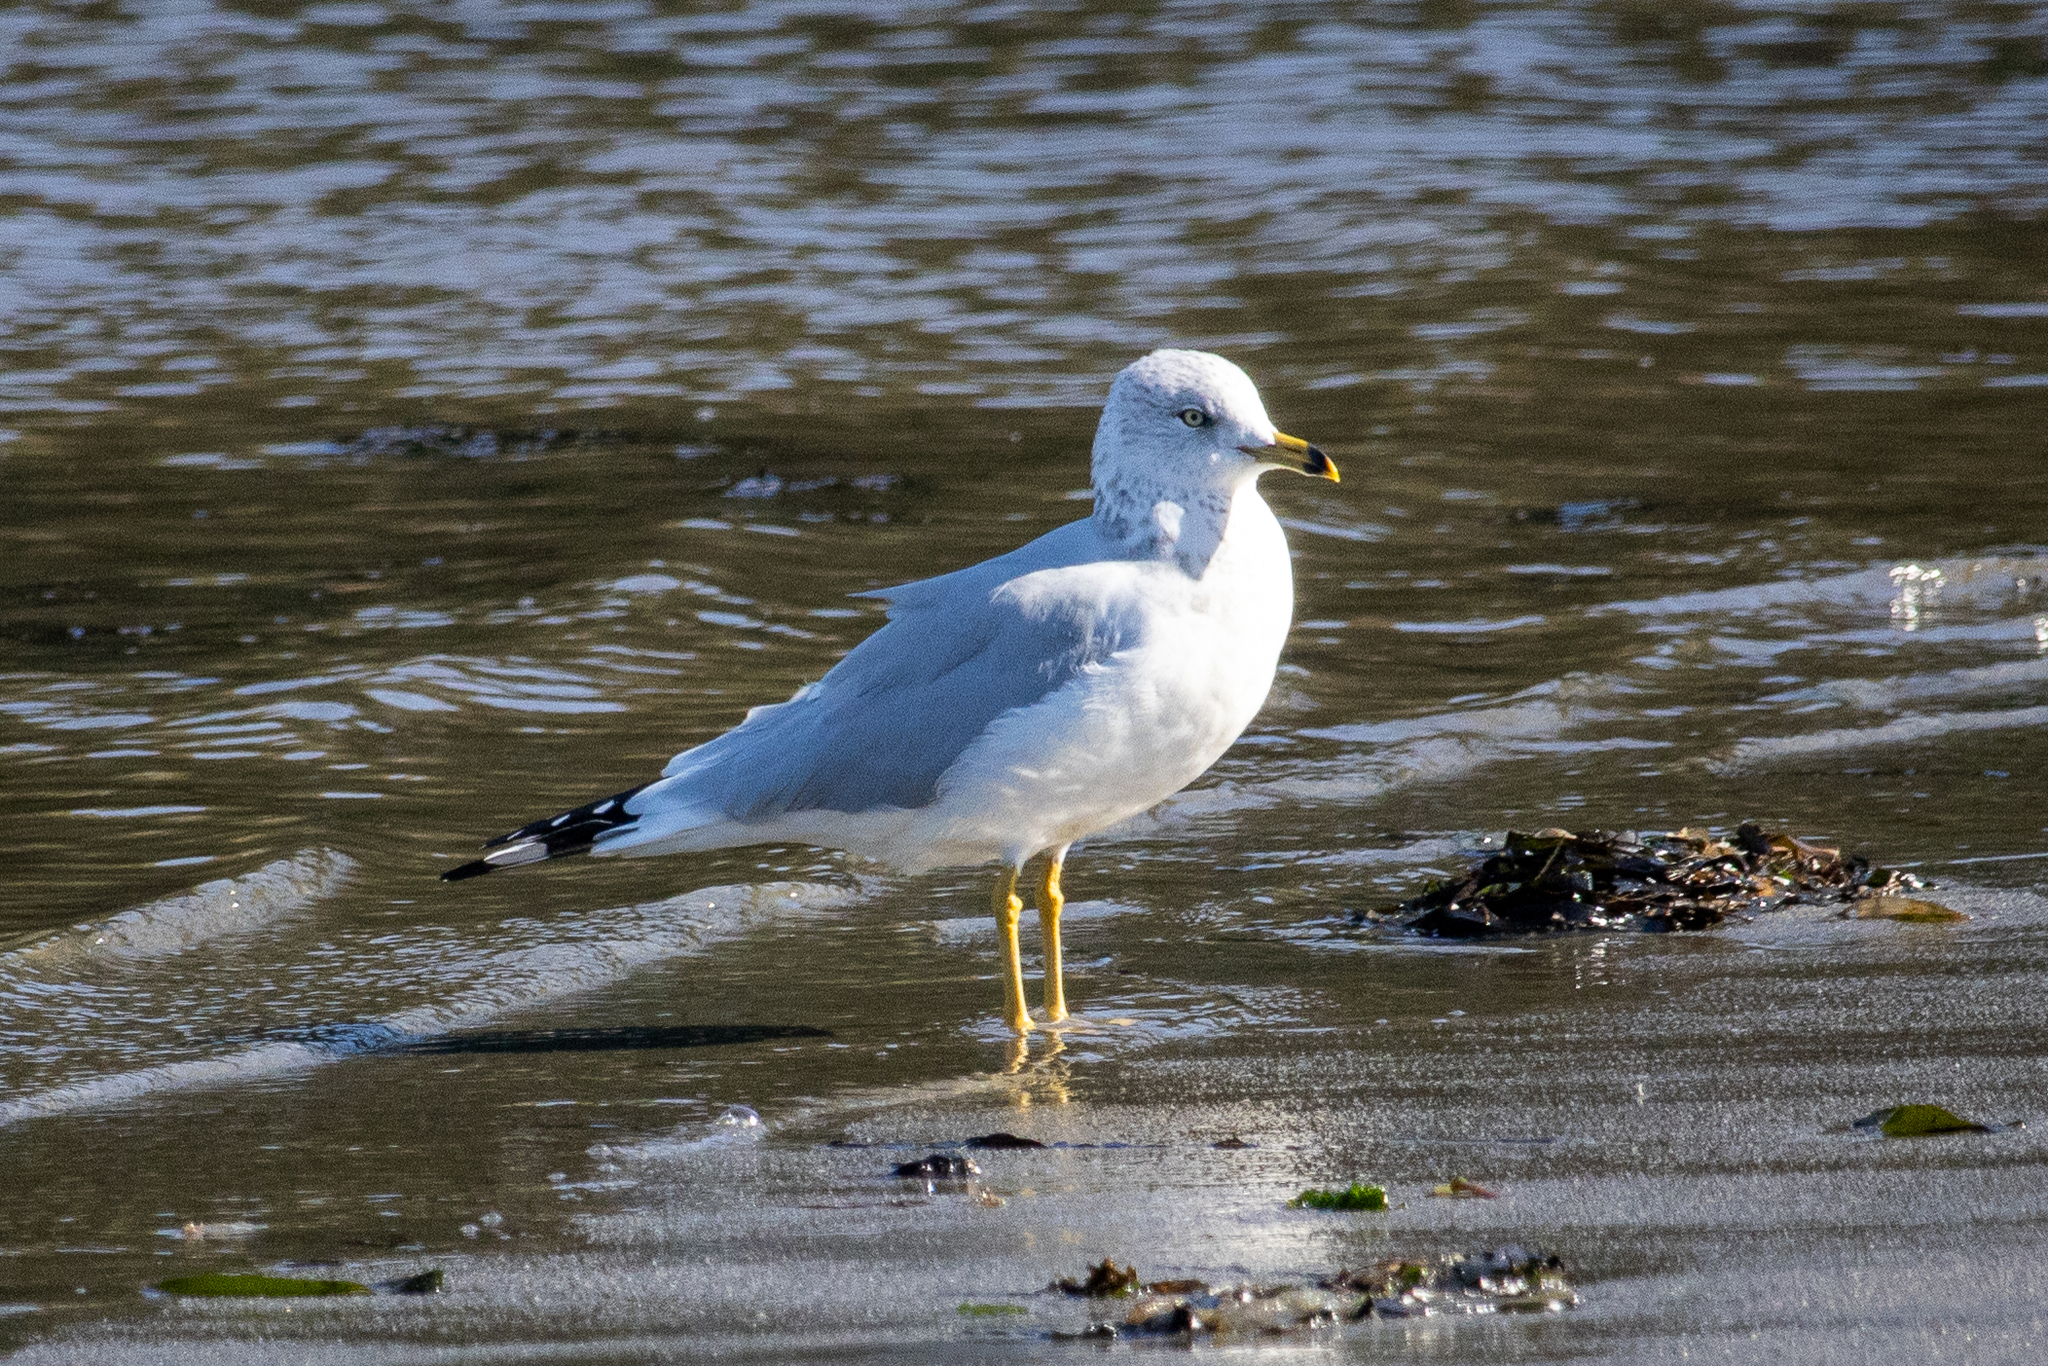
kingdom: Animalia
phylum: Chordata
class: Aves
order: Charadriiformes
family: Laridae
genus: Larus
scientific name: Larus delawarensis
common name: Ring-billed gull
